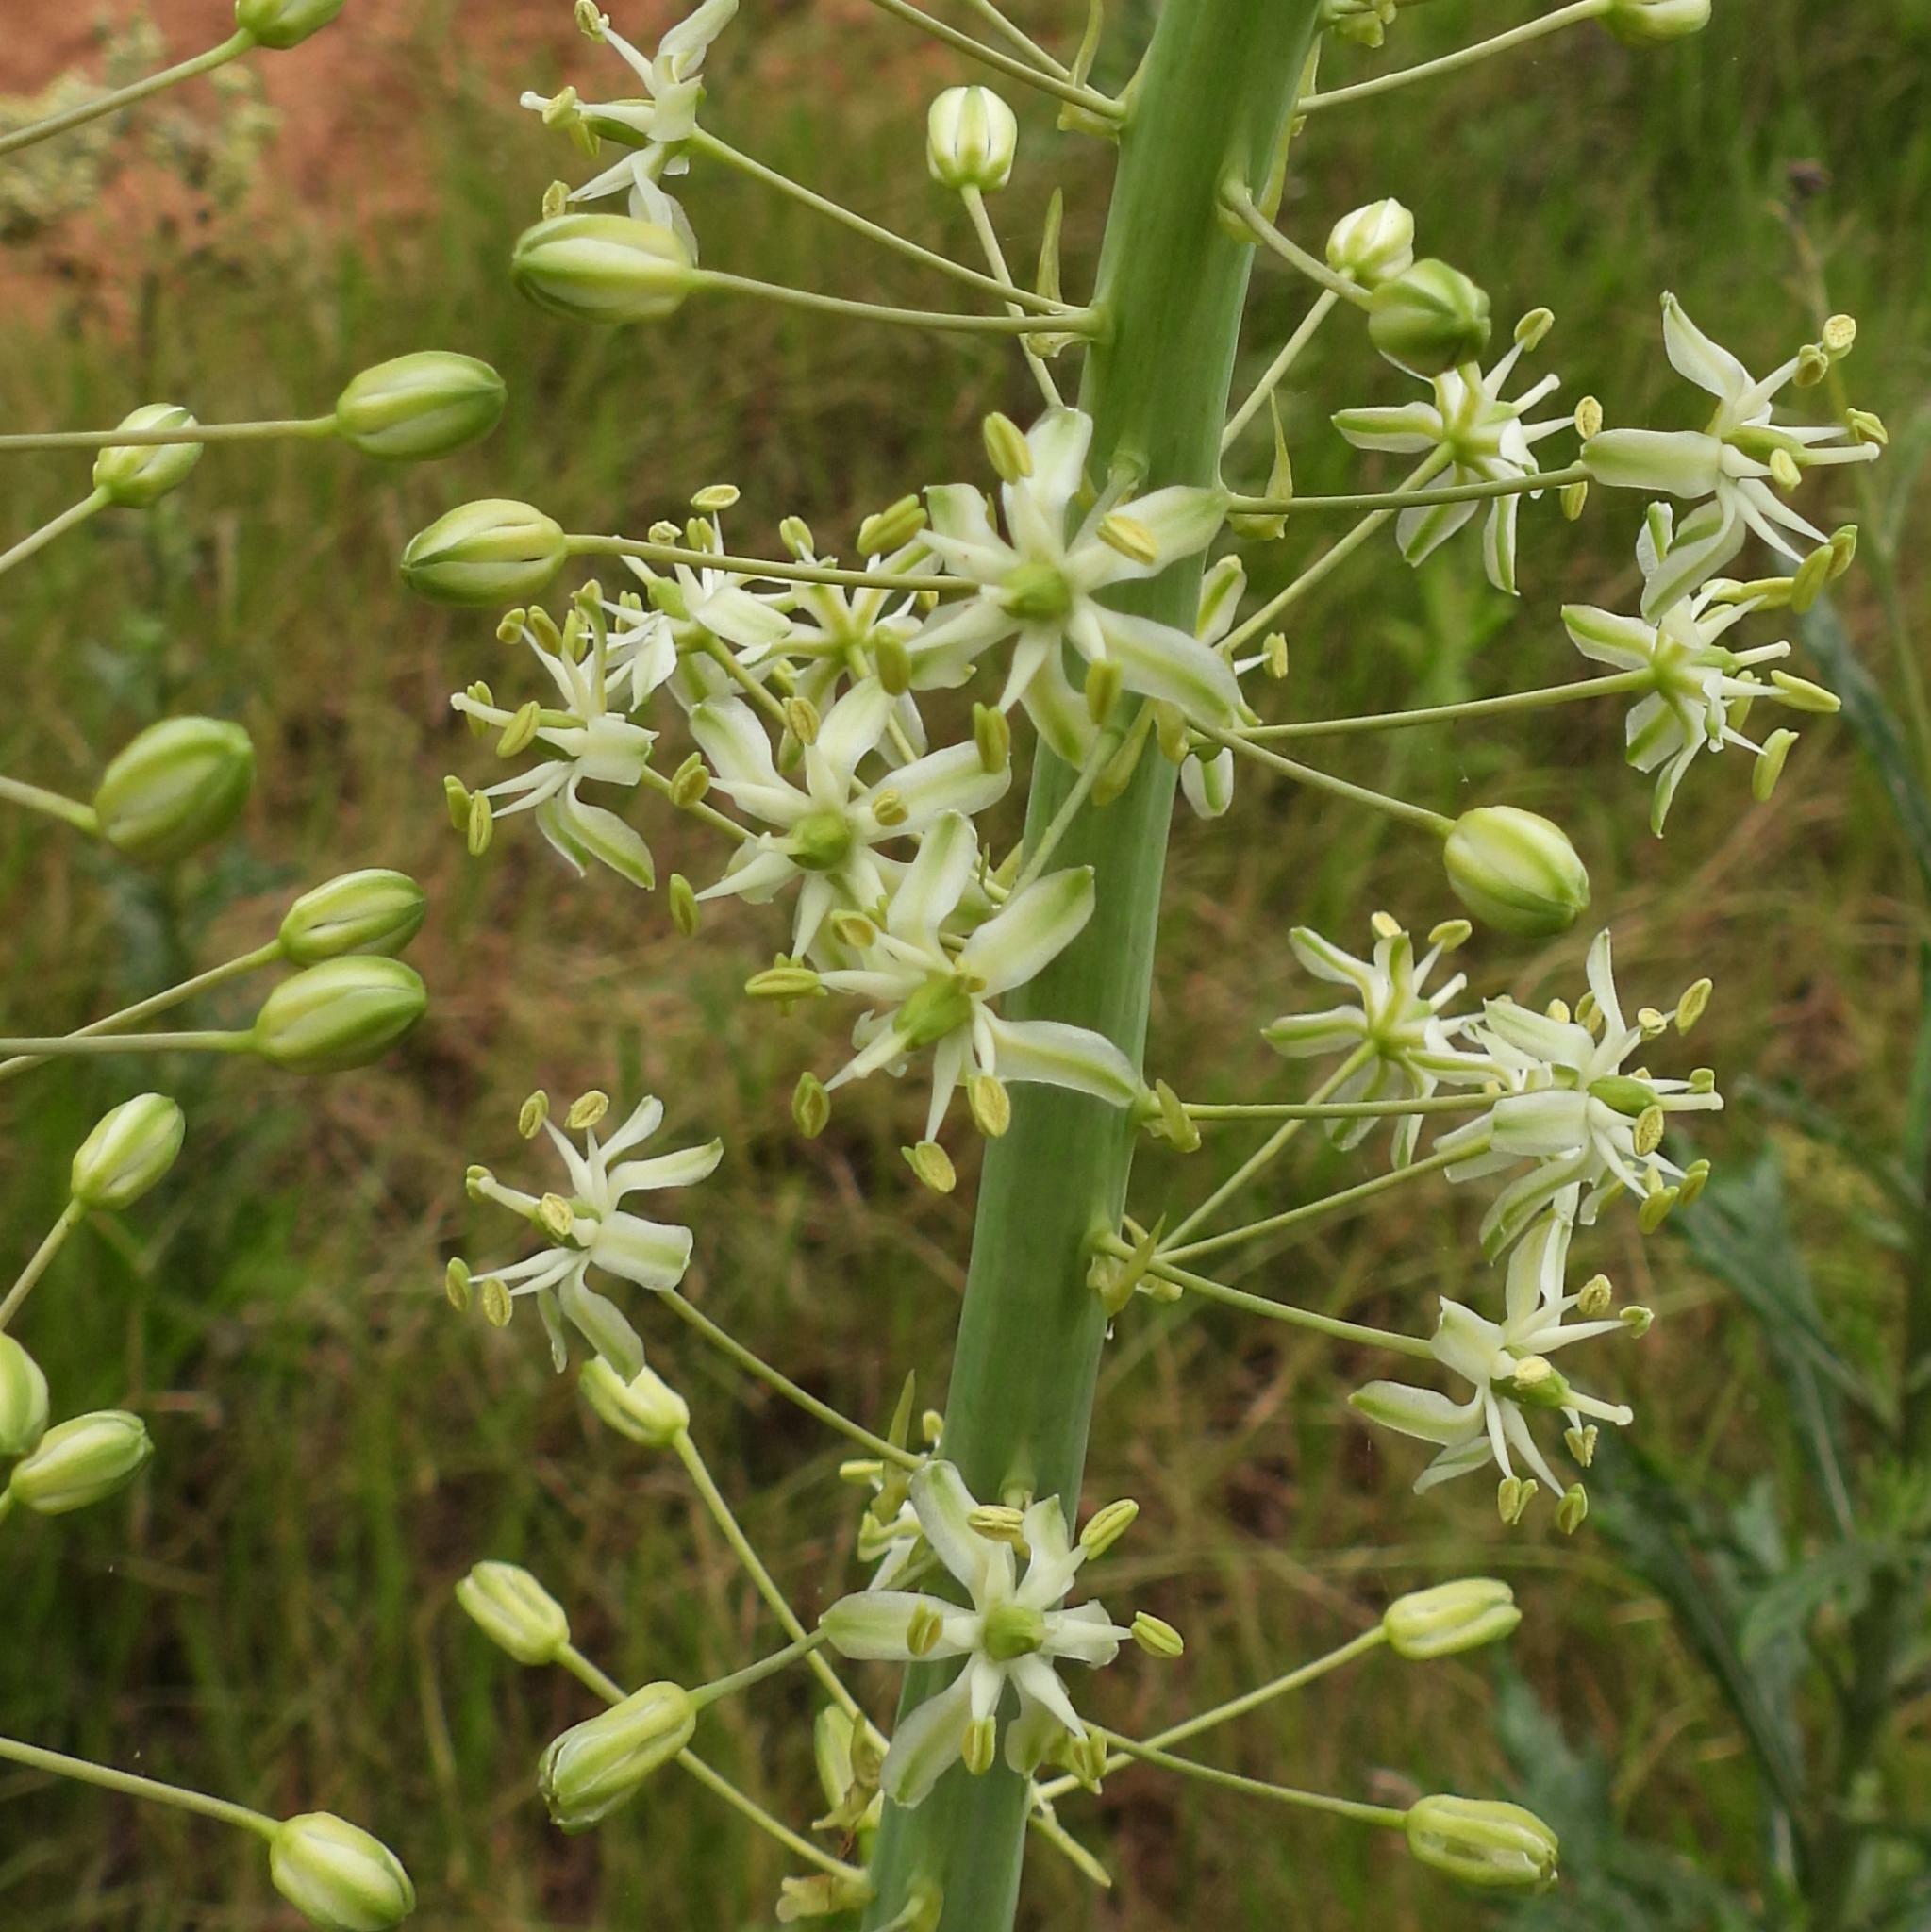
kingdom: Plantae
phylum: Tracheophyta
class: Liliopsida
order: Asparagales
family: Asparagaceae
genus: Drimia
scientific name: Drimia altissima
